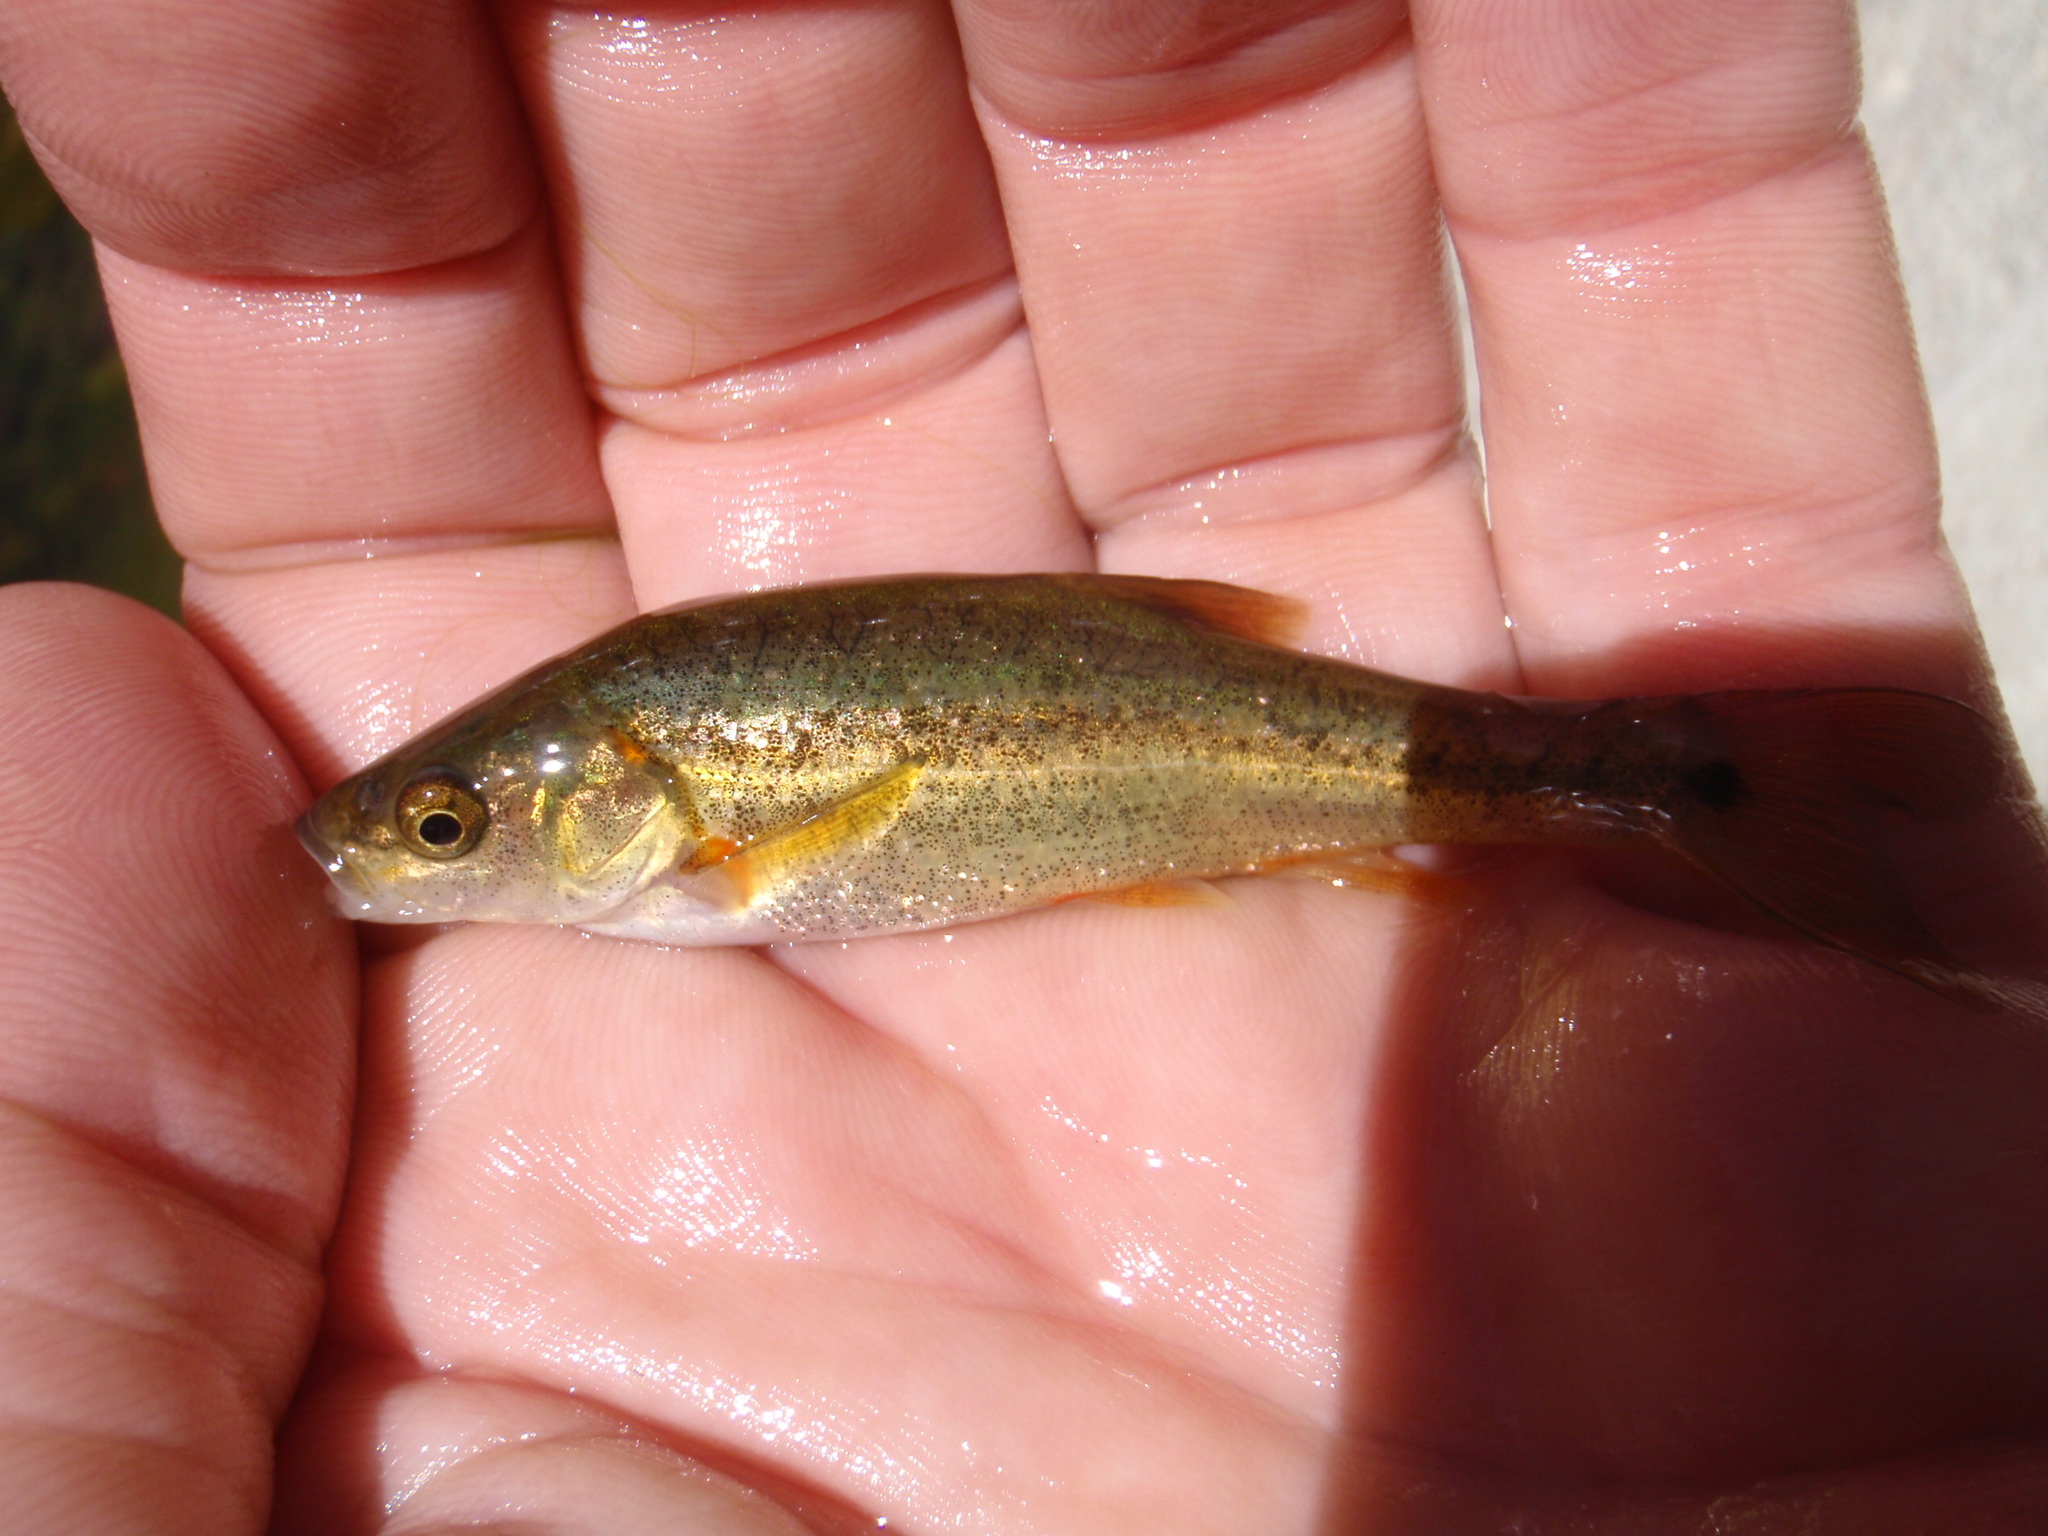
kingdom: Animalia
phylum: Chordata
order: Cypriniformes
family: Cyprinidae
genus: Gila
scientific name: Gila ditaenia
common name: Sonora chub
